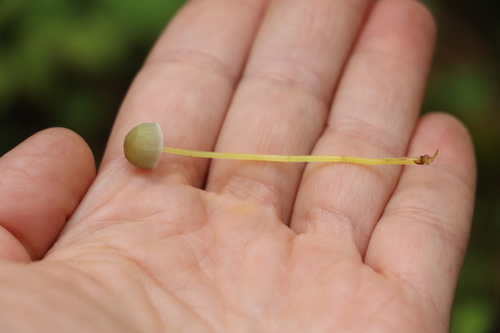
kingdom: Fungi
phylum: Basidiomycota
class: Agaricomycetes
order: Agaricales
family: Mycenaceae
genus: Mycena
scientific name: Mycena epipterygia
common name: Yellowleg bonnet
